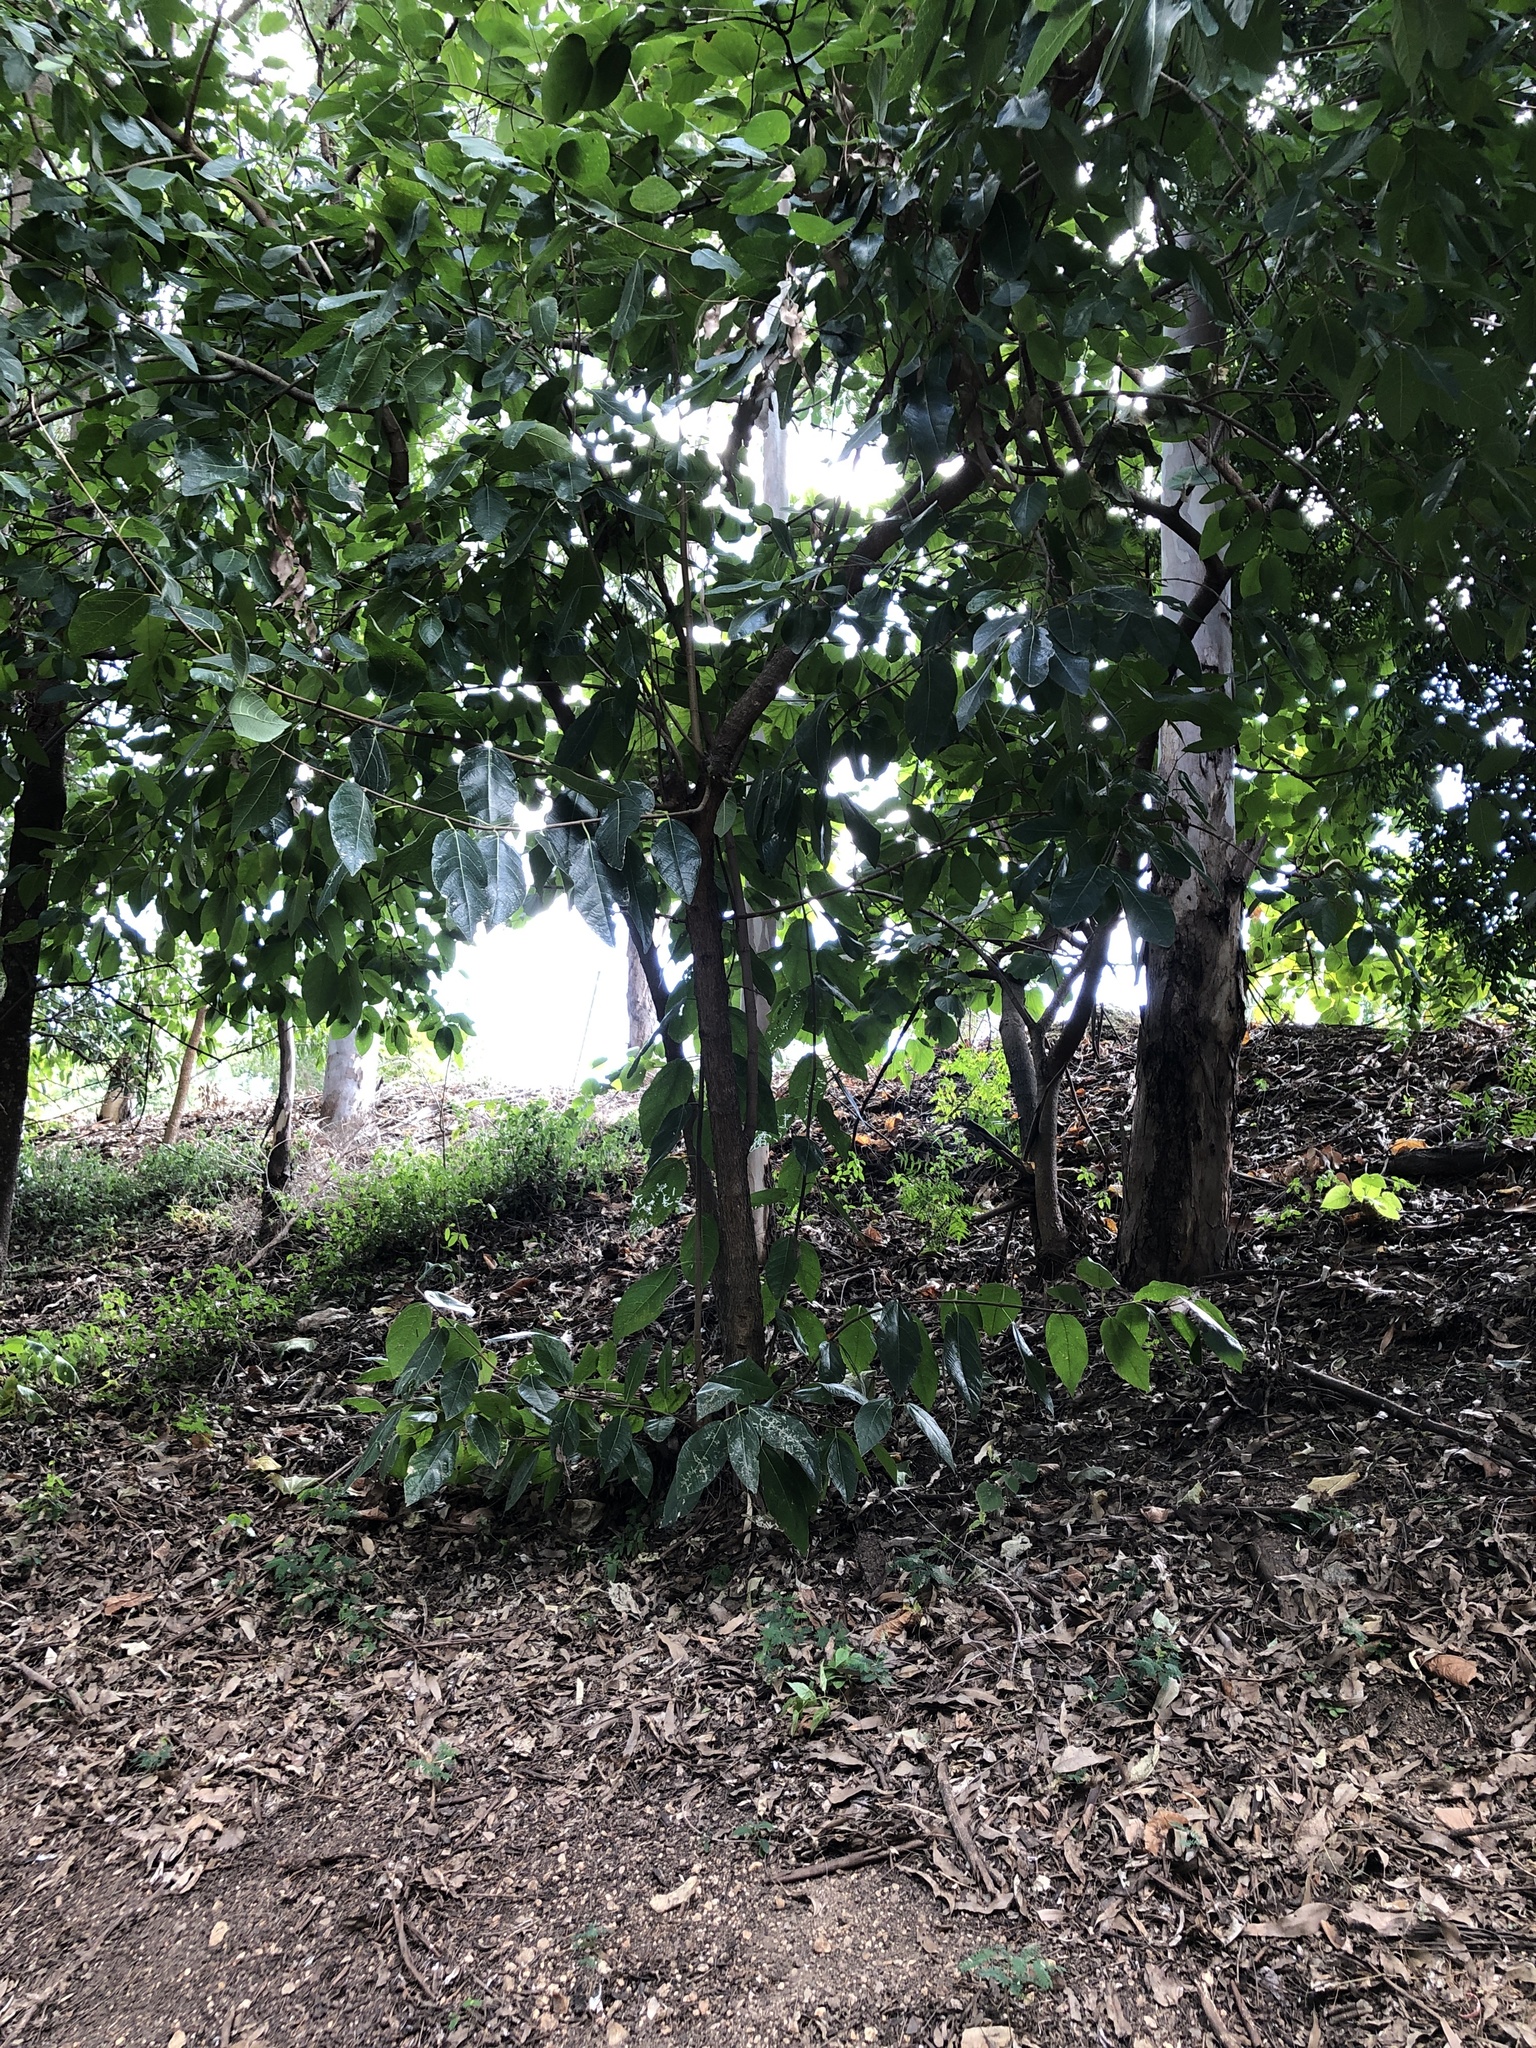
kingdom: Plantae
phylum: Tracheophyta
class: Magnoliopsida
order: Rosales
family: Moraceae
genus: Ficus
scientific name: Ficus opposita
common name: Figwood
